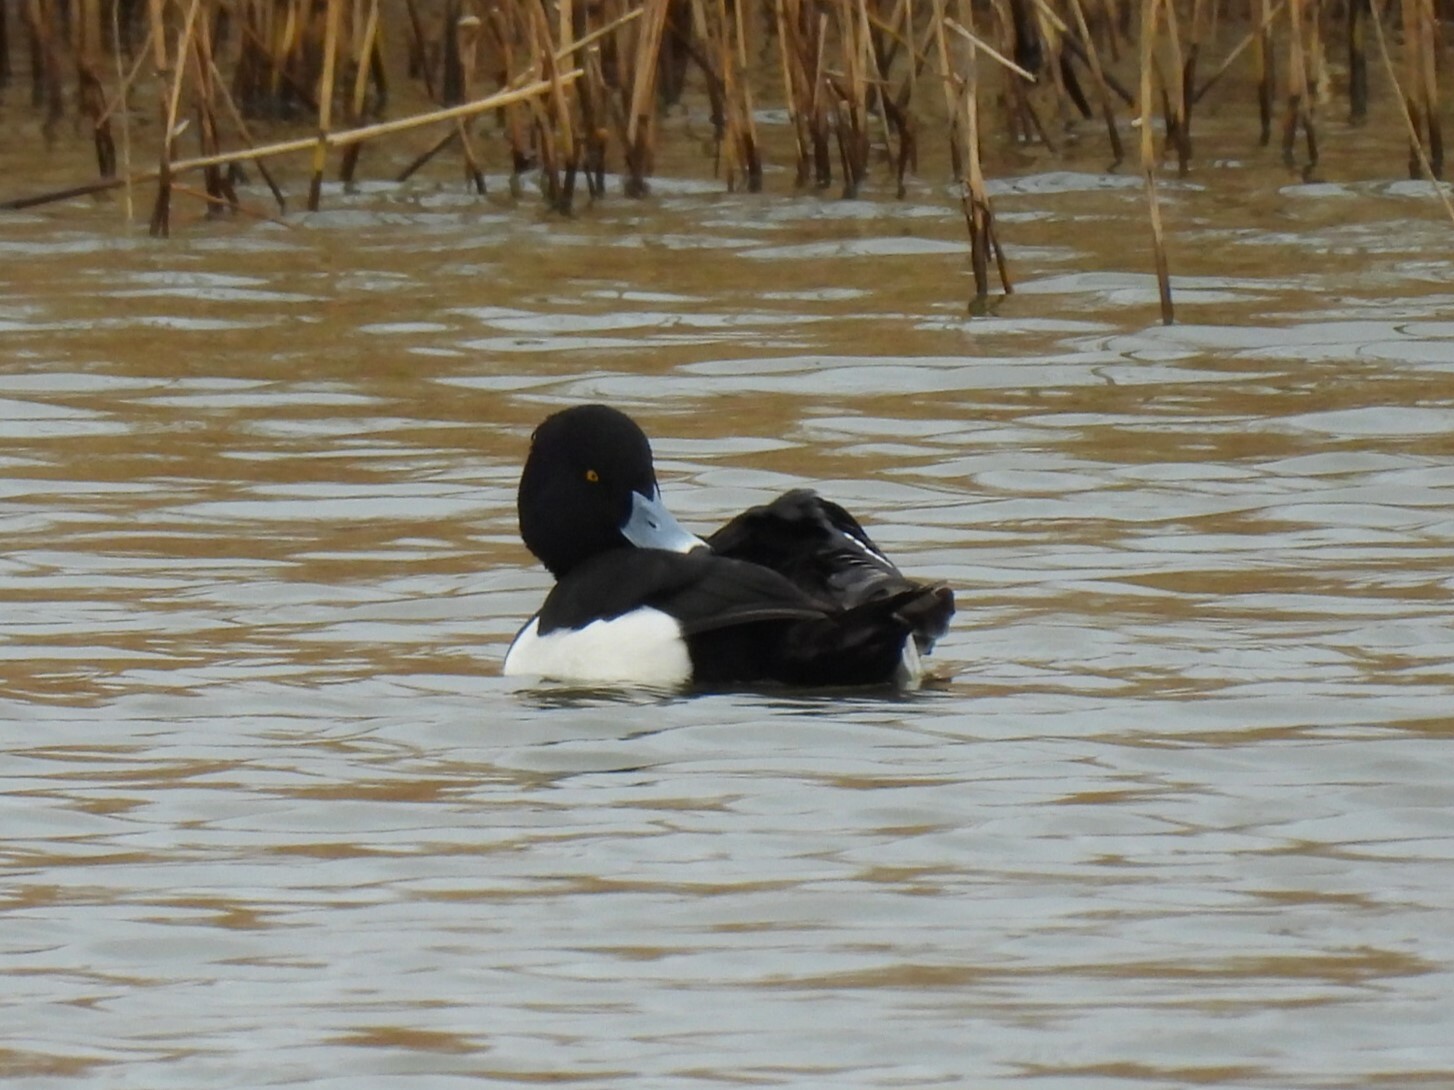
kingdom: Animalia
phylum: Chordata
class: Aves
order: Anseriformes
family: Anatidae
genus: Aythya
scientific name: Aythya fuligula
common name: Tufted duck
